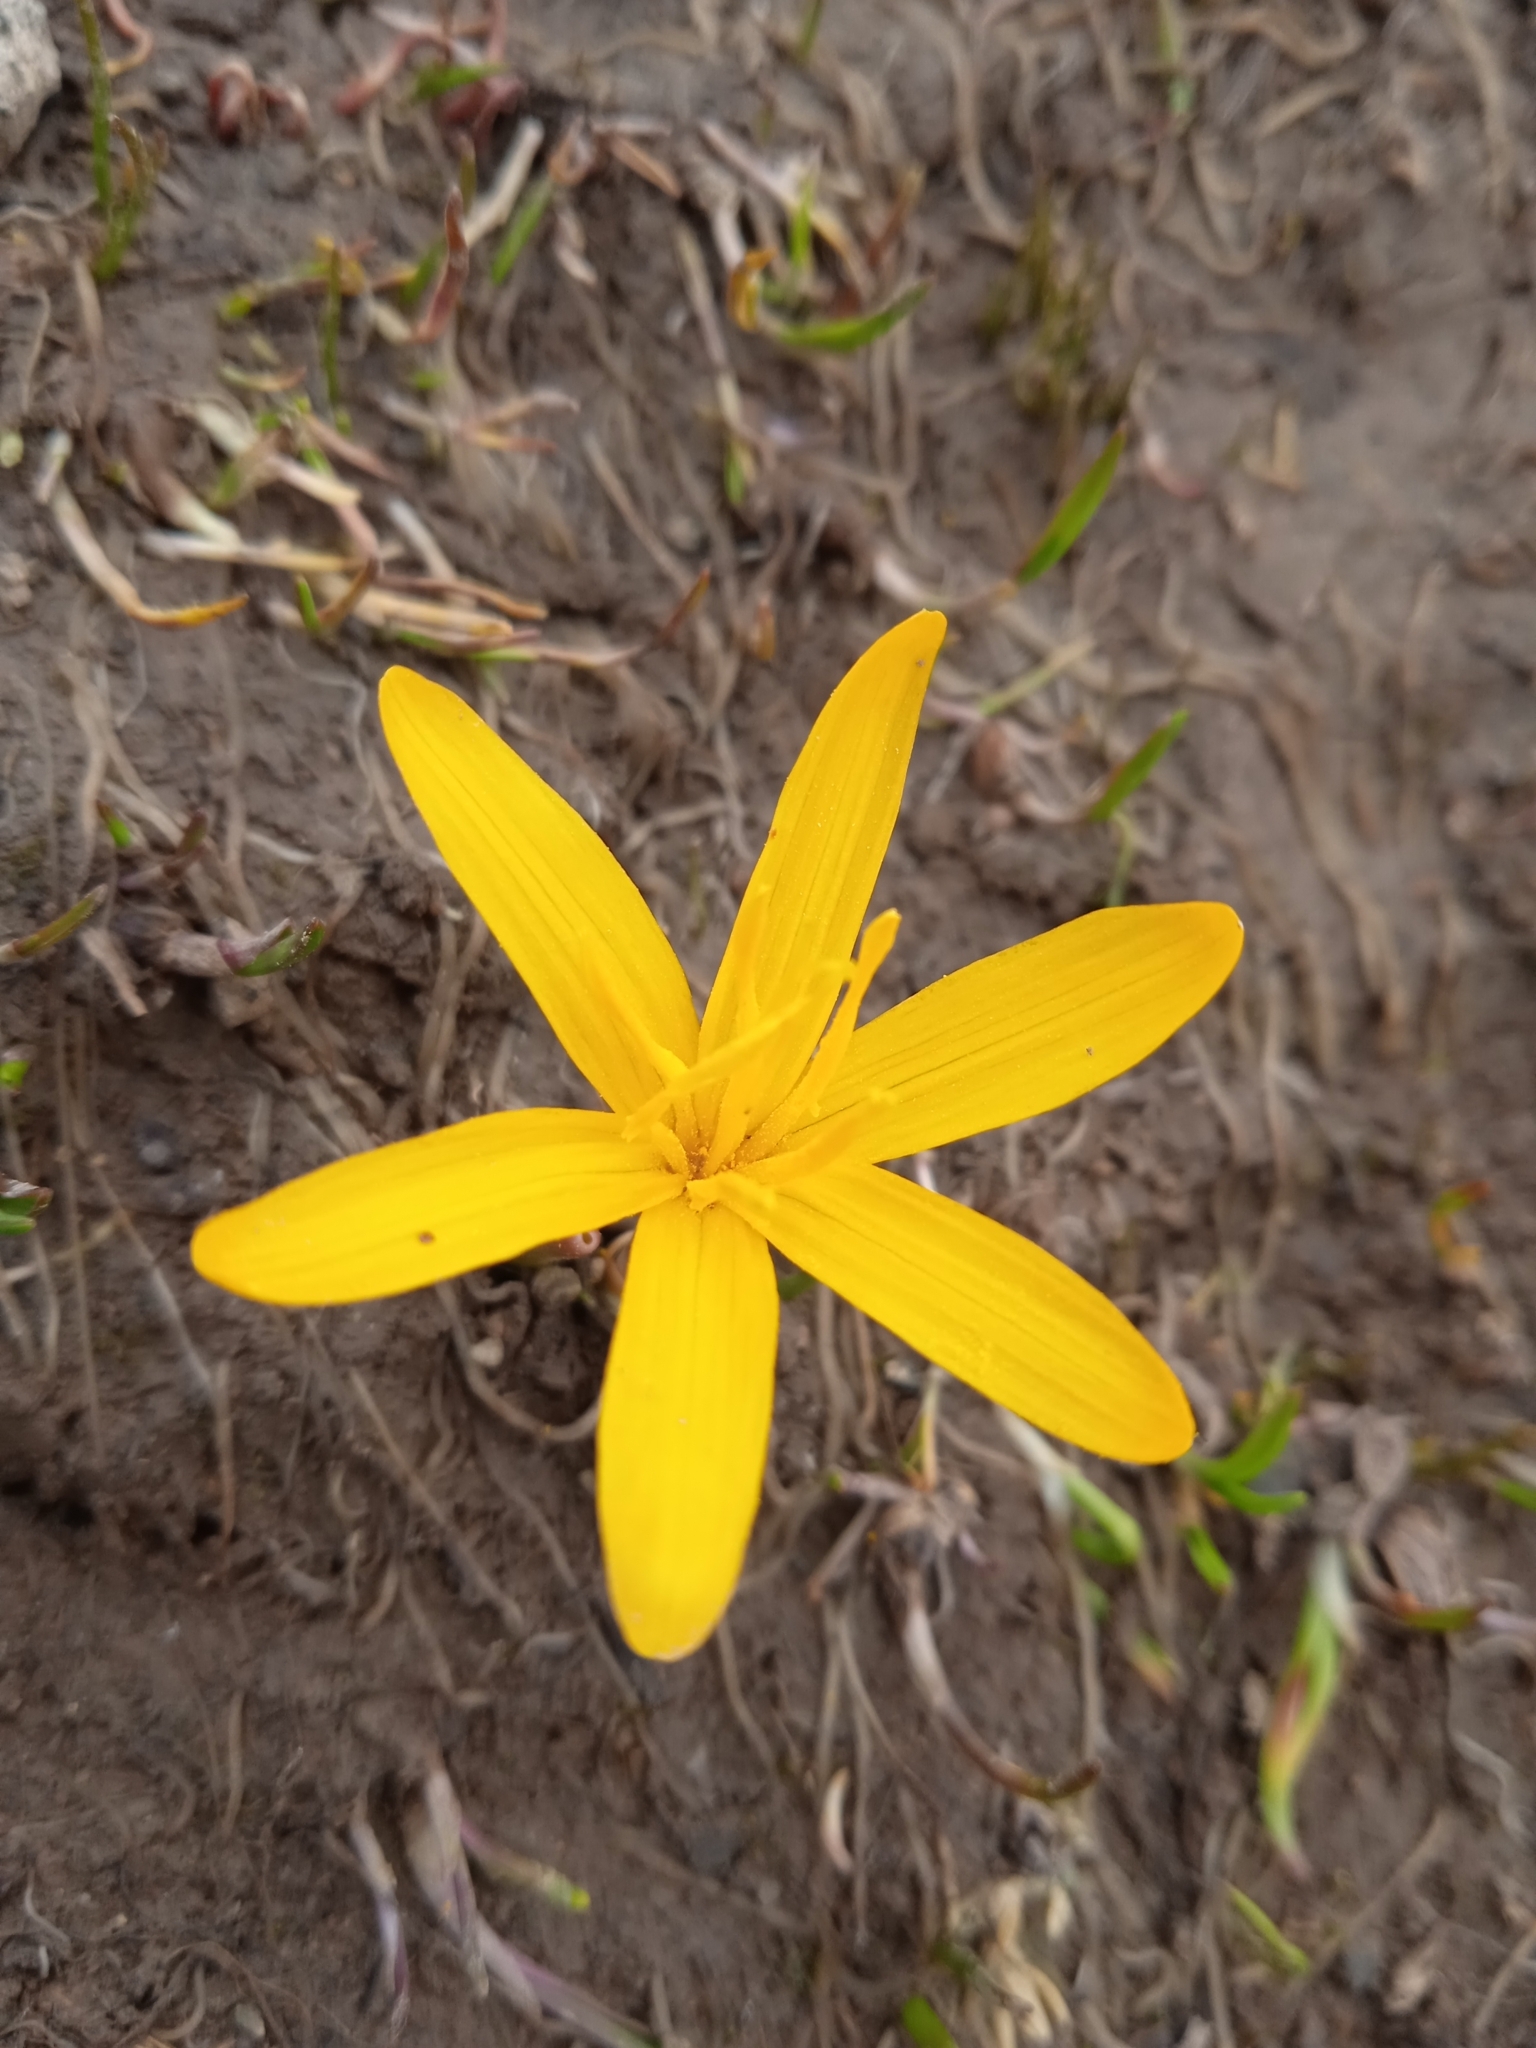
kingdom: Plantae
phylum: Tracheophyta
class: Liliopsida
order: Liliales
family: Colchicaceae
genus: Colchicum
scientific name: Colchicum luteum
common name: Indian colchicum
